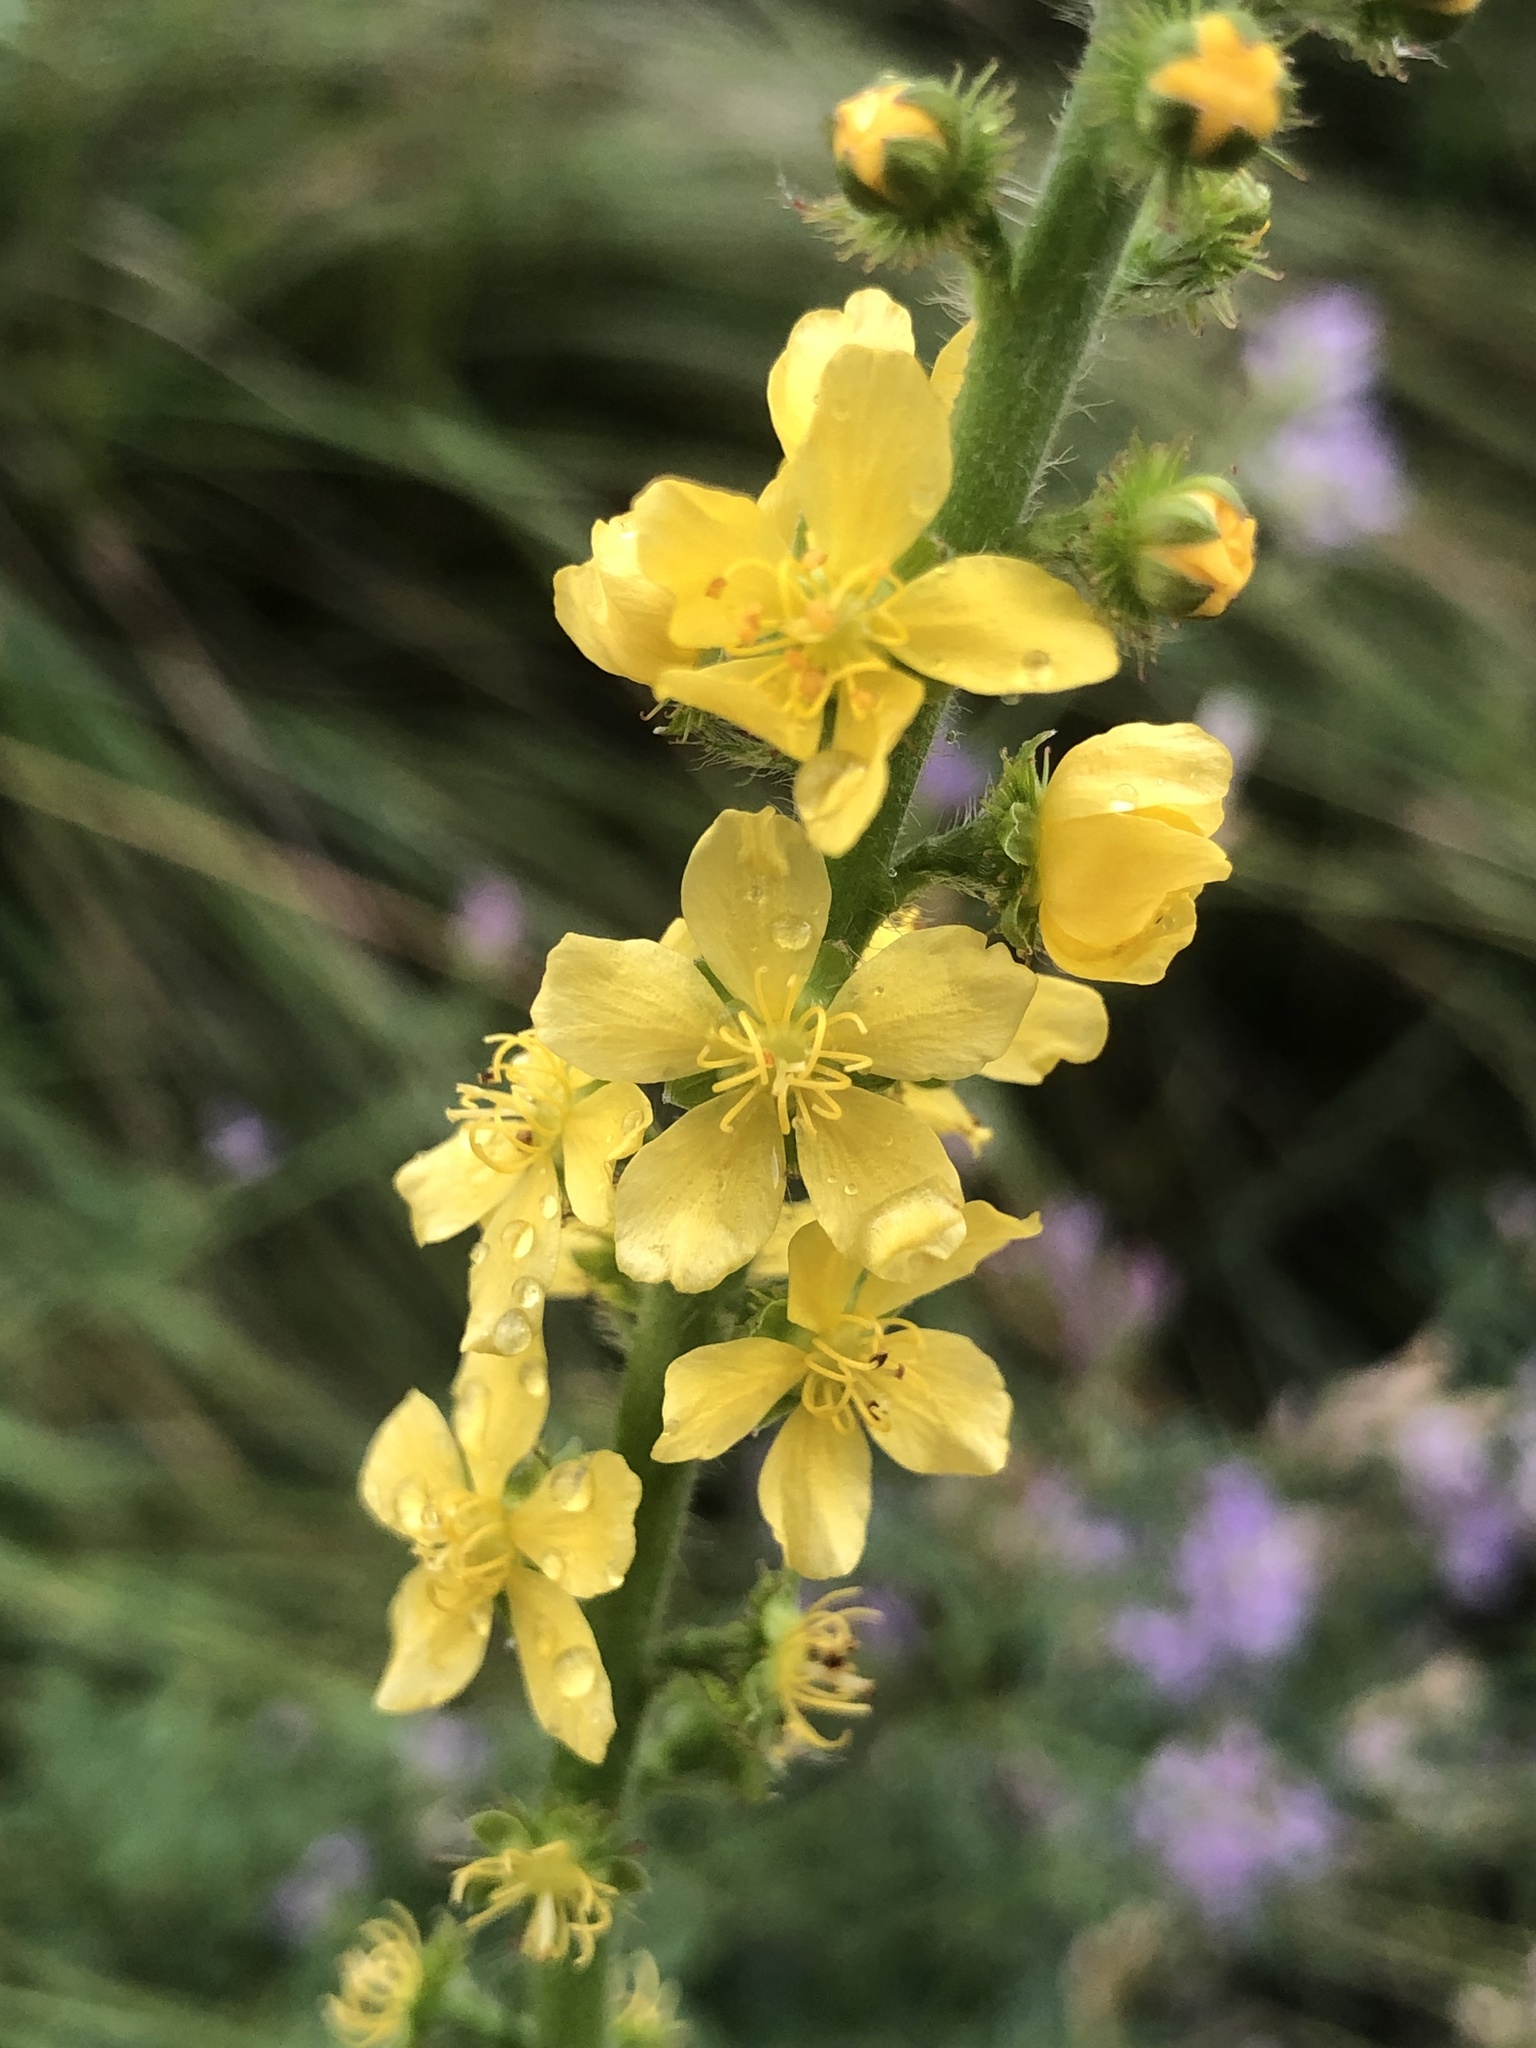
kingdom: Plantae
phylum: Tracheophyta
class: Magnoliopsida
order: Rosales
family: Rosaceae
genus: Agrimonia
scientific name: Agrimonia eupatoria
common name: Agrimony
